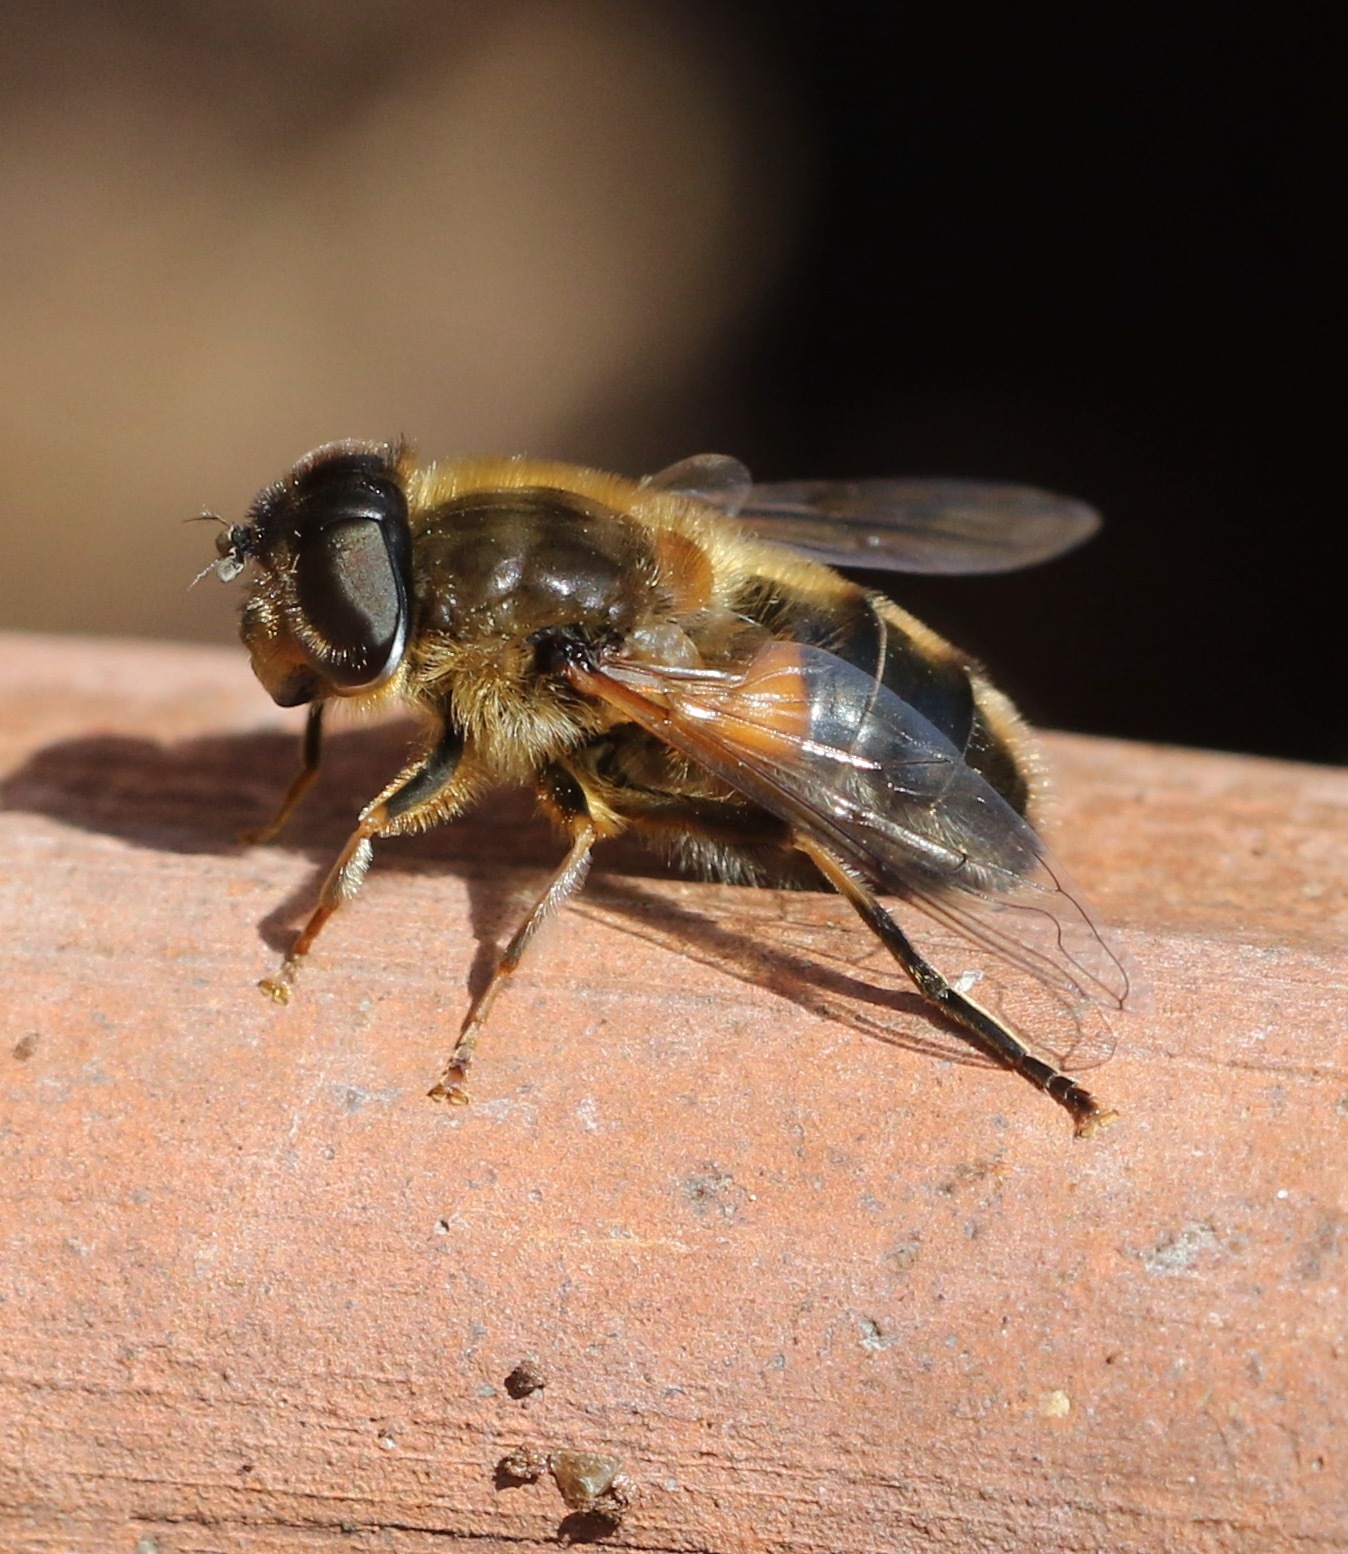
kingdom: Animalia
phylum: Arthropoda
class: Insecta
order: Diptera
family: Syrphidae
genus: Eristalis
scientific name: Eristalis pertinax
